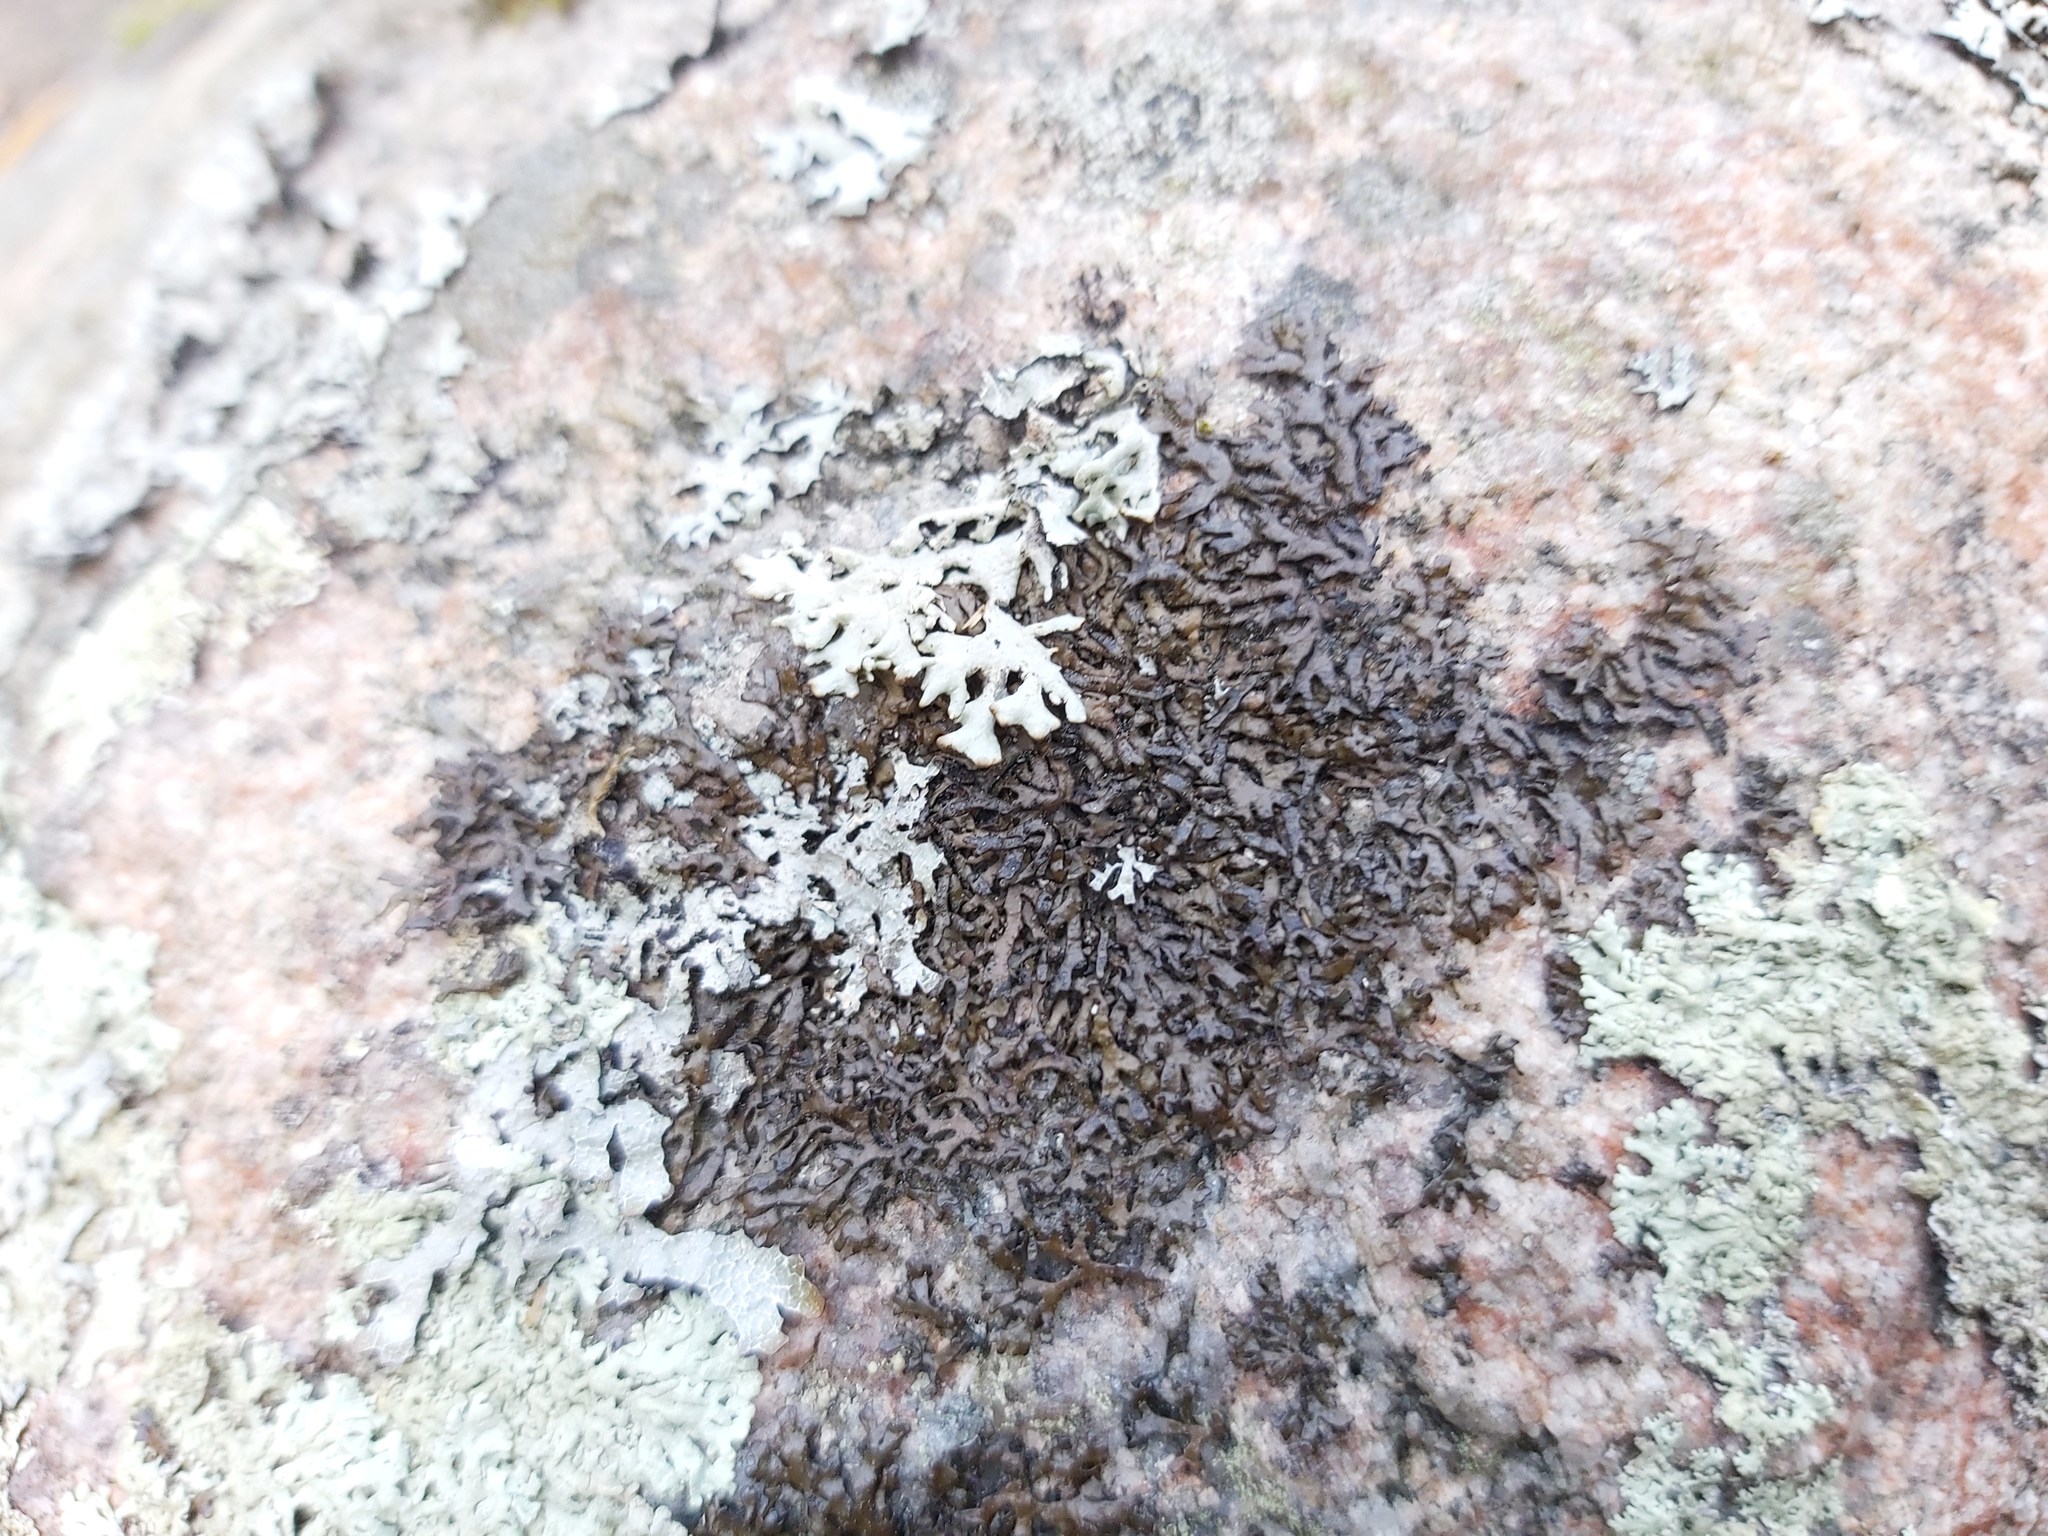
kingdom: Fungi
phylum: Ascomycota
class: Lecanoromycetes
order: Lecanorales
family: Parmeliaceae
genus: Melanelia
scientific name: Melanelia stygia
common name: Alpine camouflage lichen
